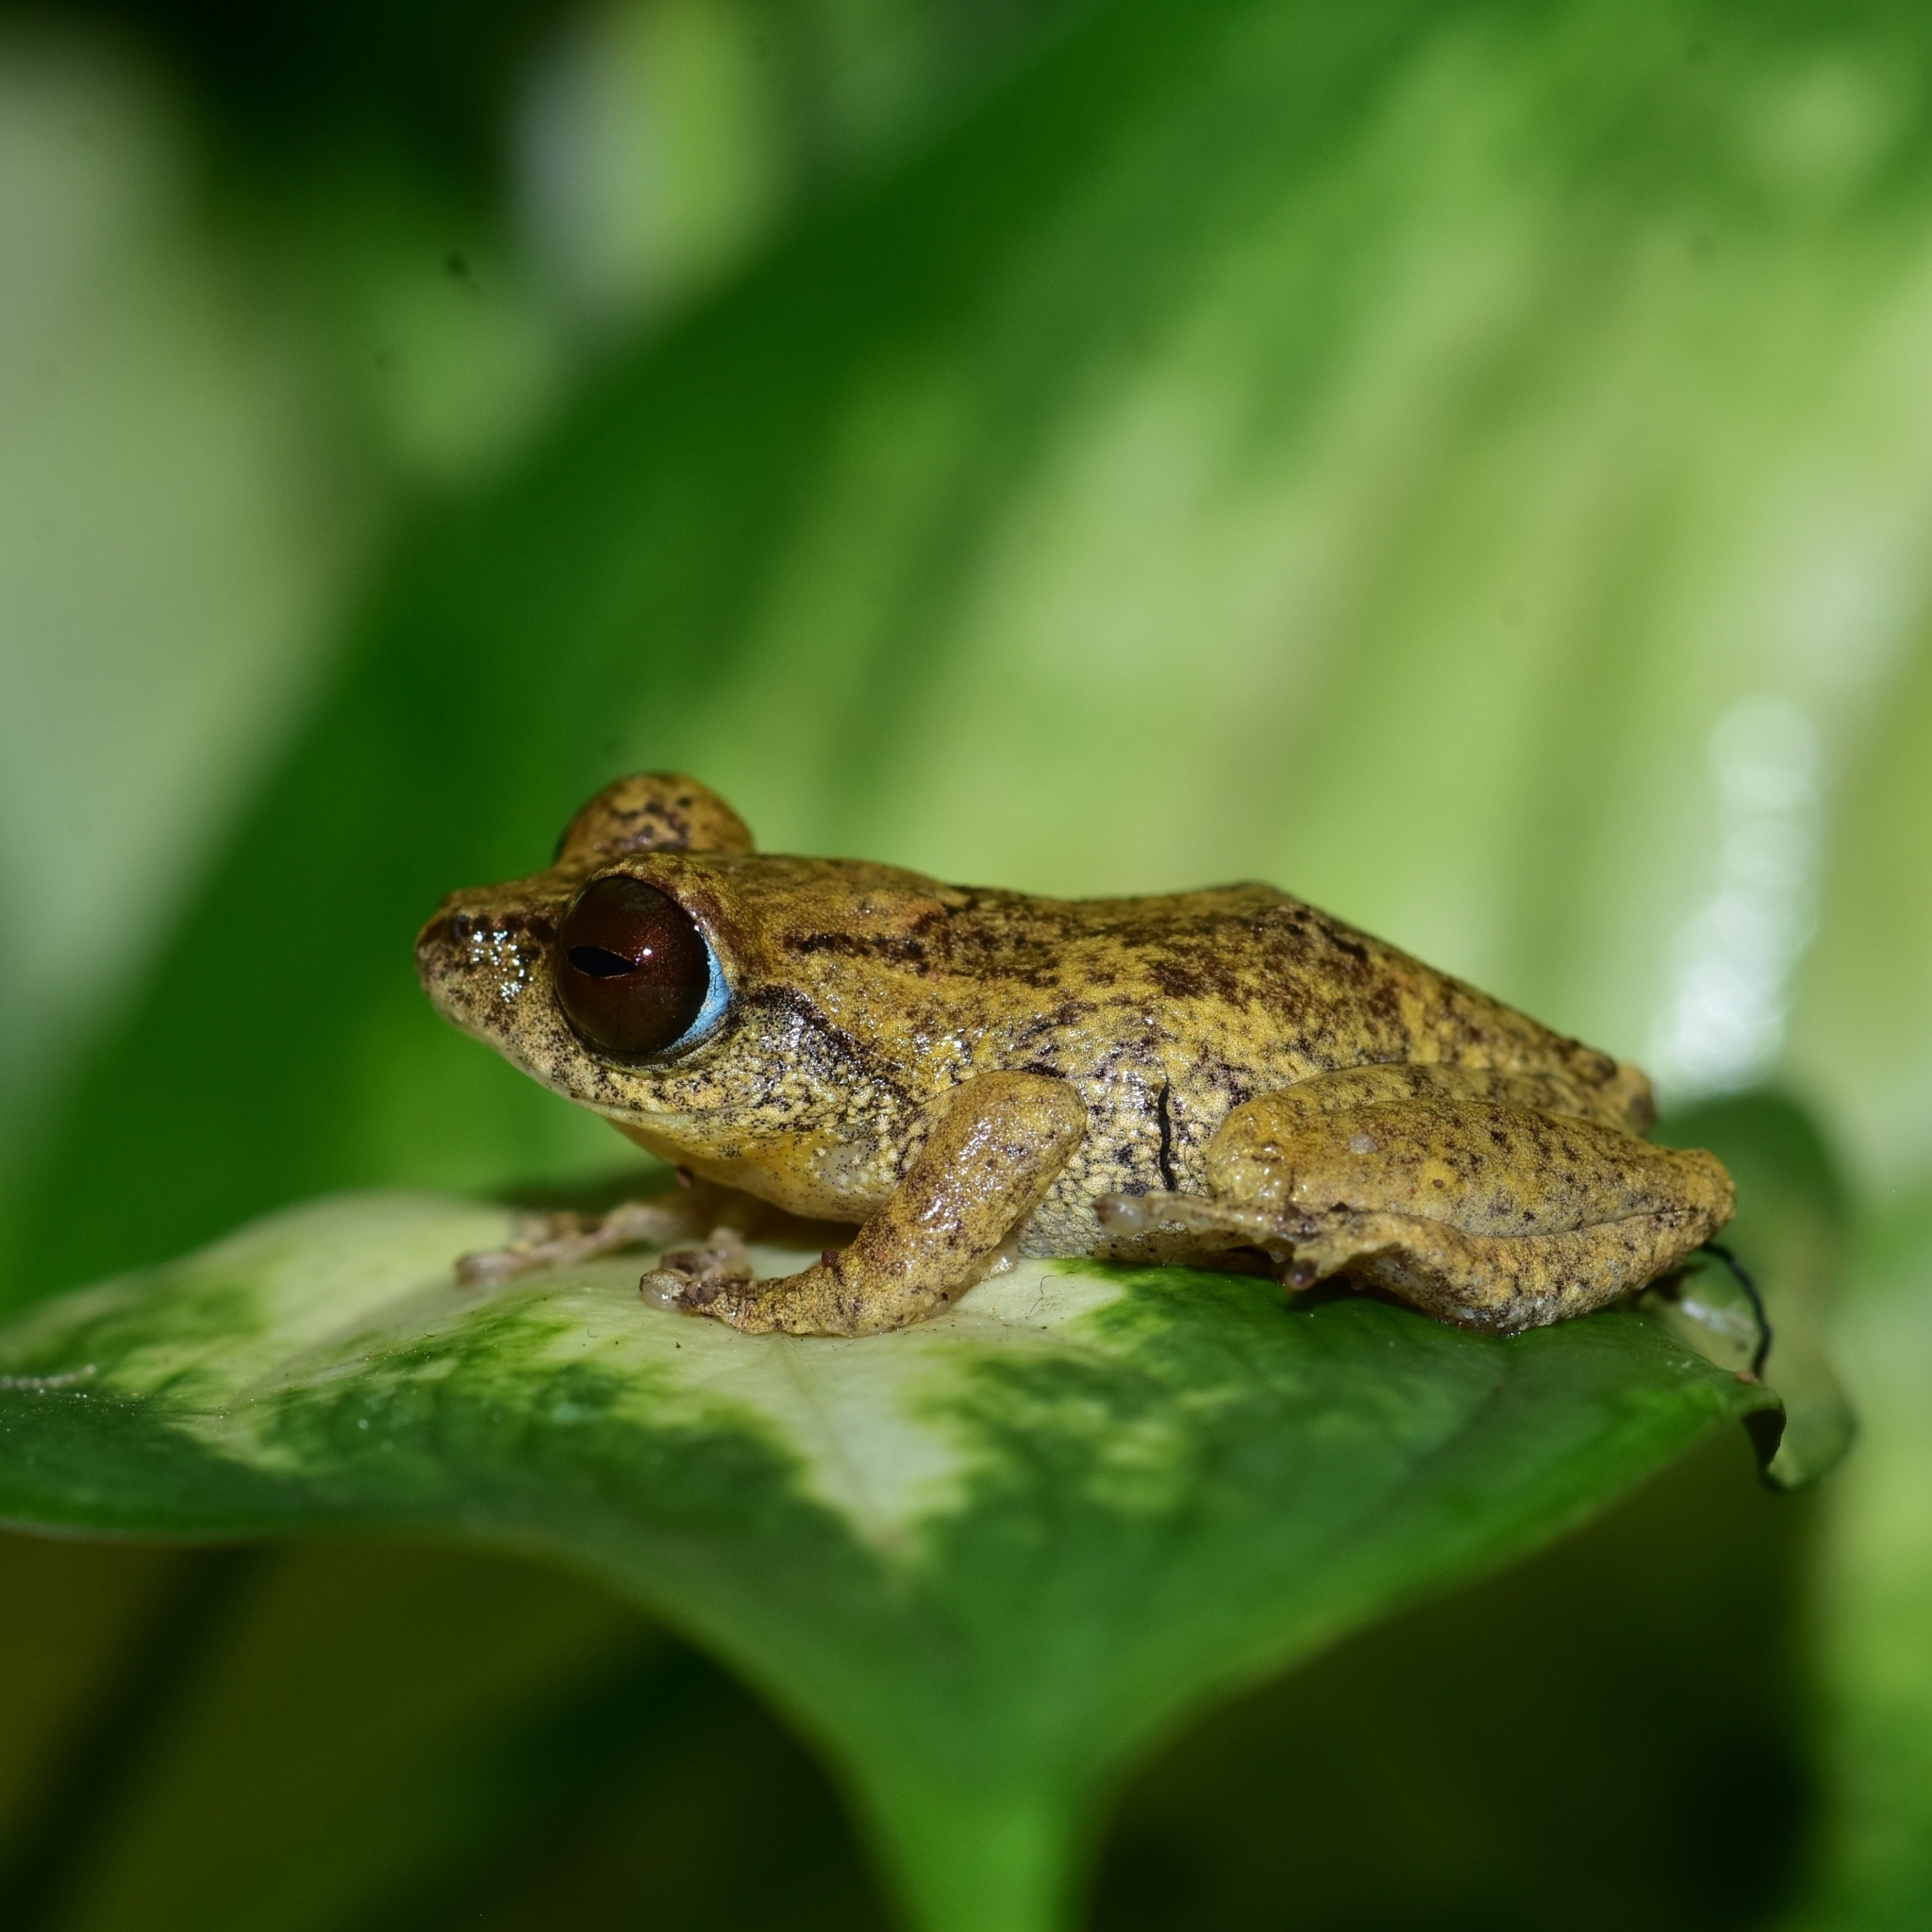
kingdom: Animalia
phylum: Chordata
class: Amphibia
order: Anura
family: Rhacophoridae
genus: Raorchestes
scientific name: Raorchestes sushili
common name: Sushil's bushfrog
